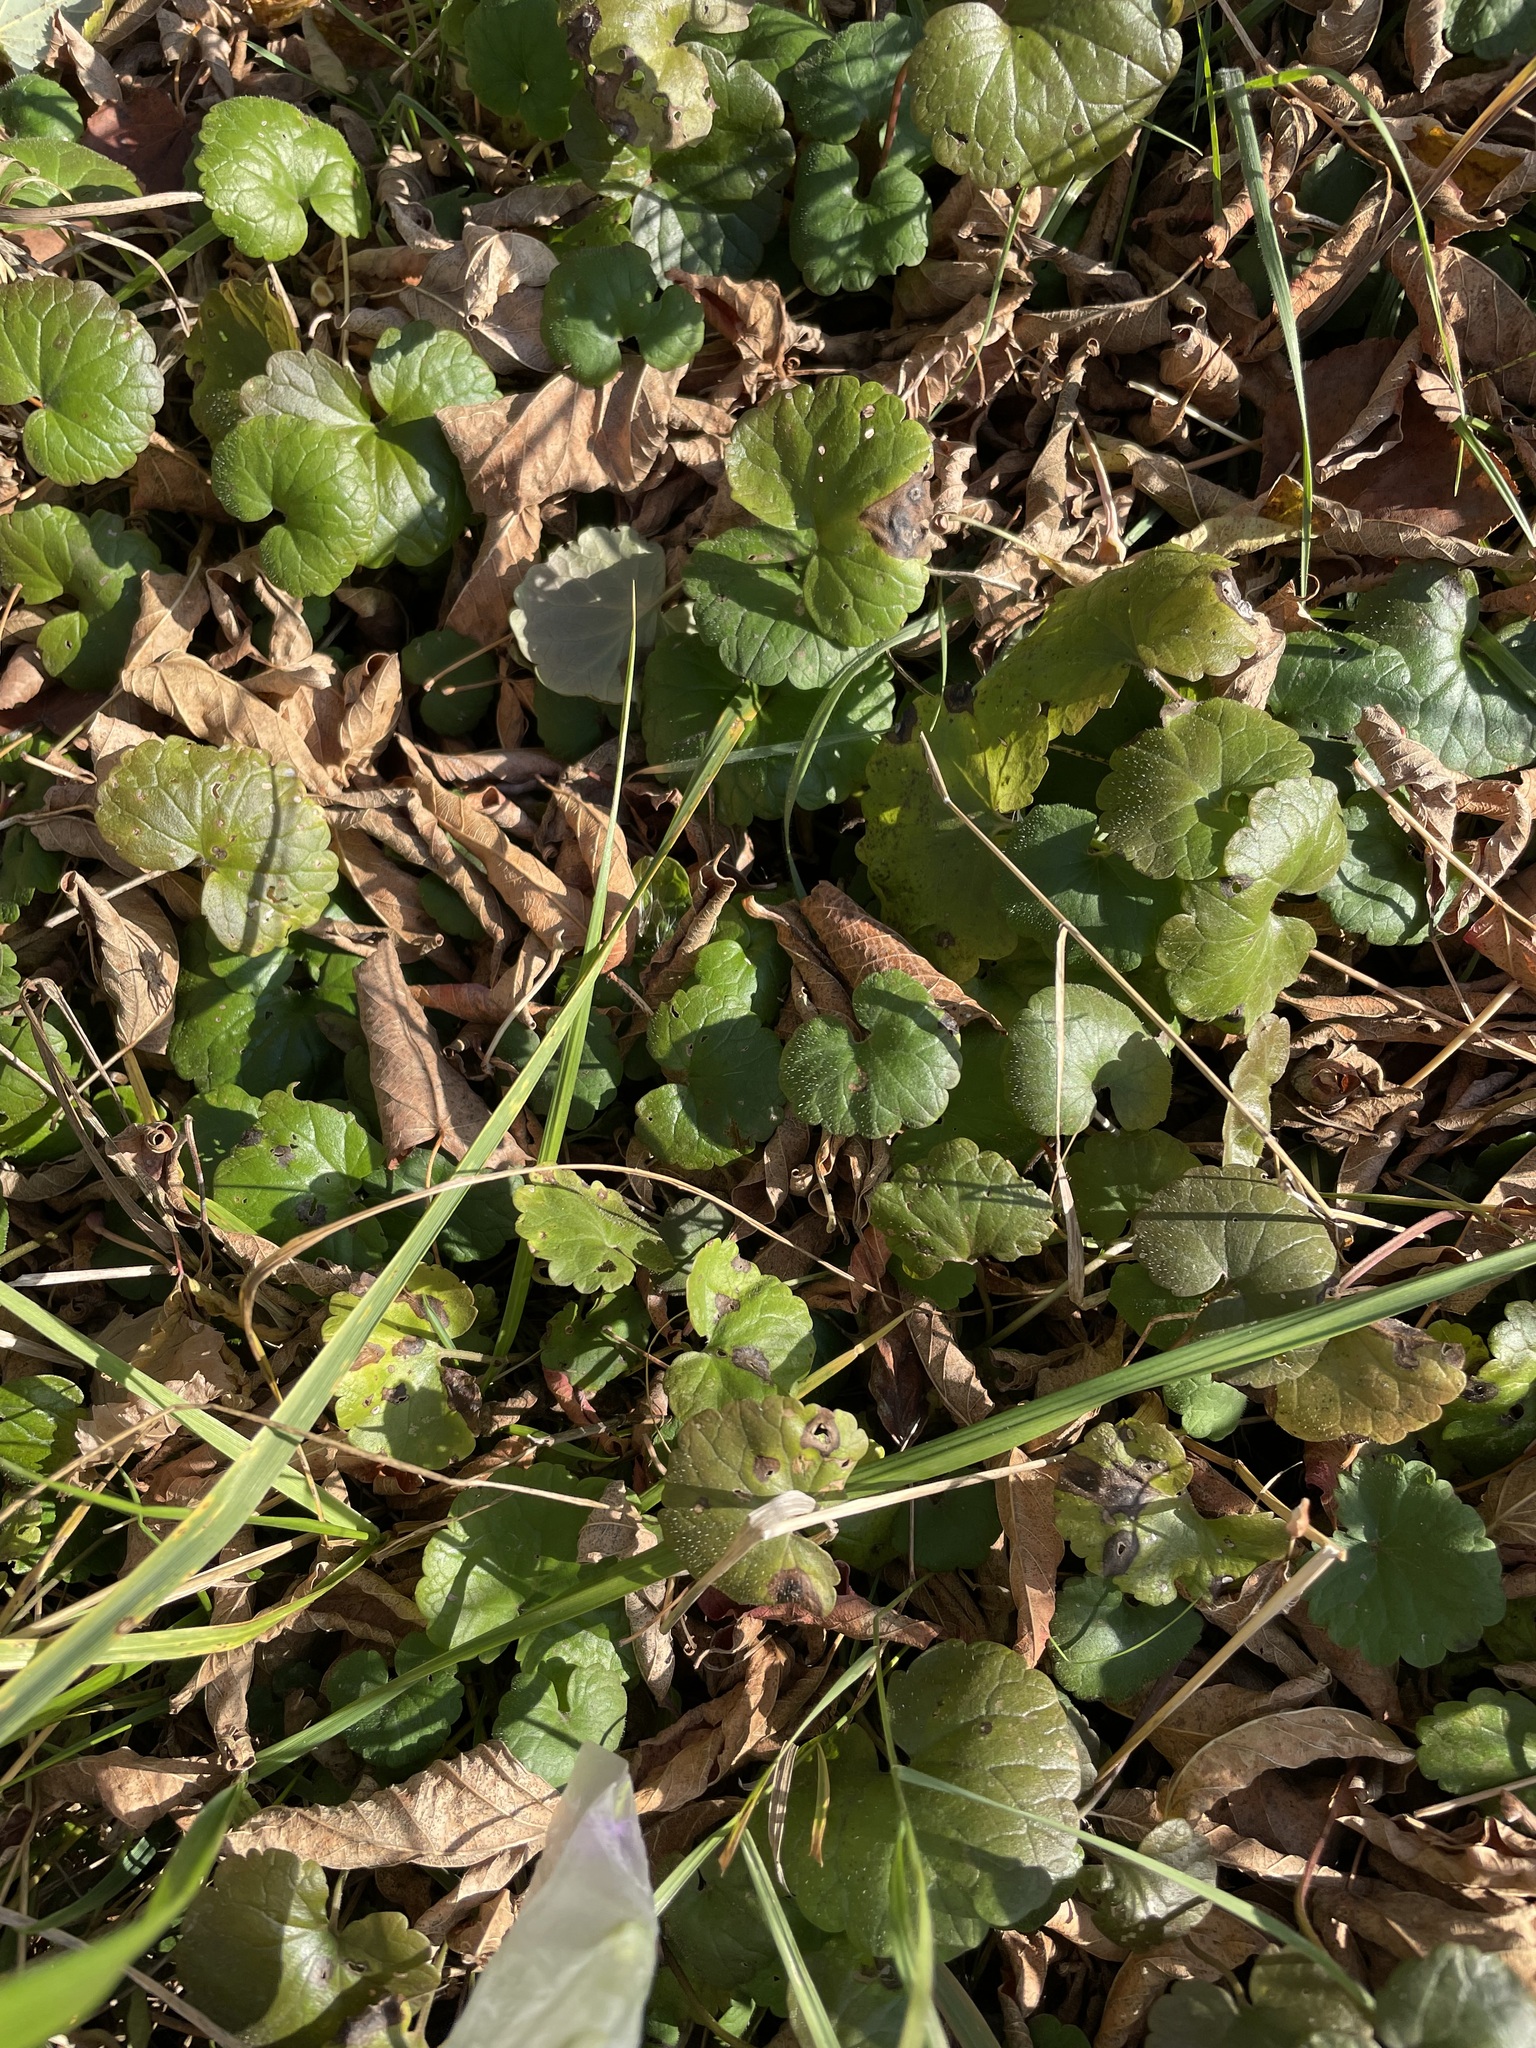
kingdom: Plantae
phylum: Tracheophyta
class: Magnoliopsida
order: Lamiales
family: Lamiaceae
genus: Glechoma
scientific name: Glechoma hederacea
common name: Ground ivy
